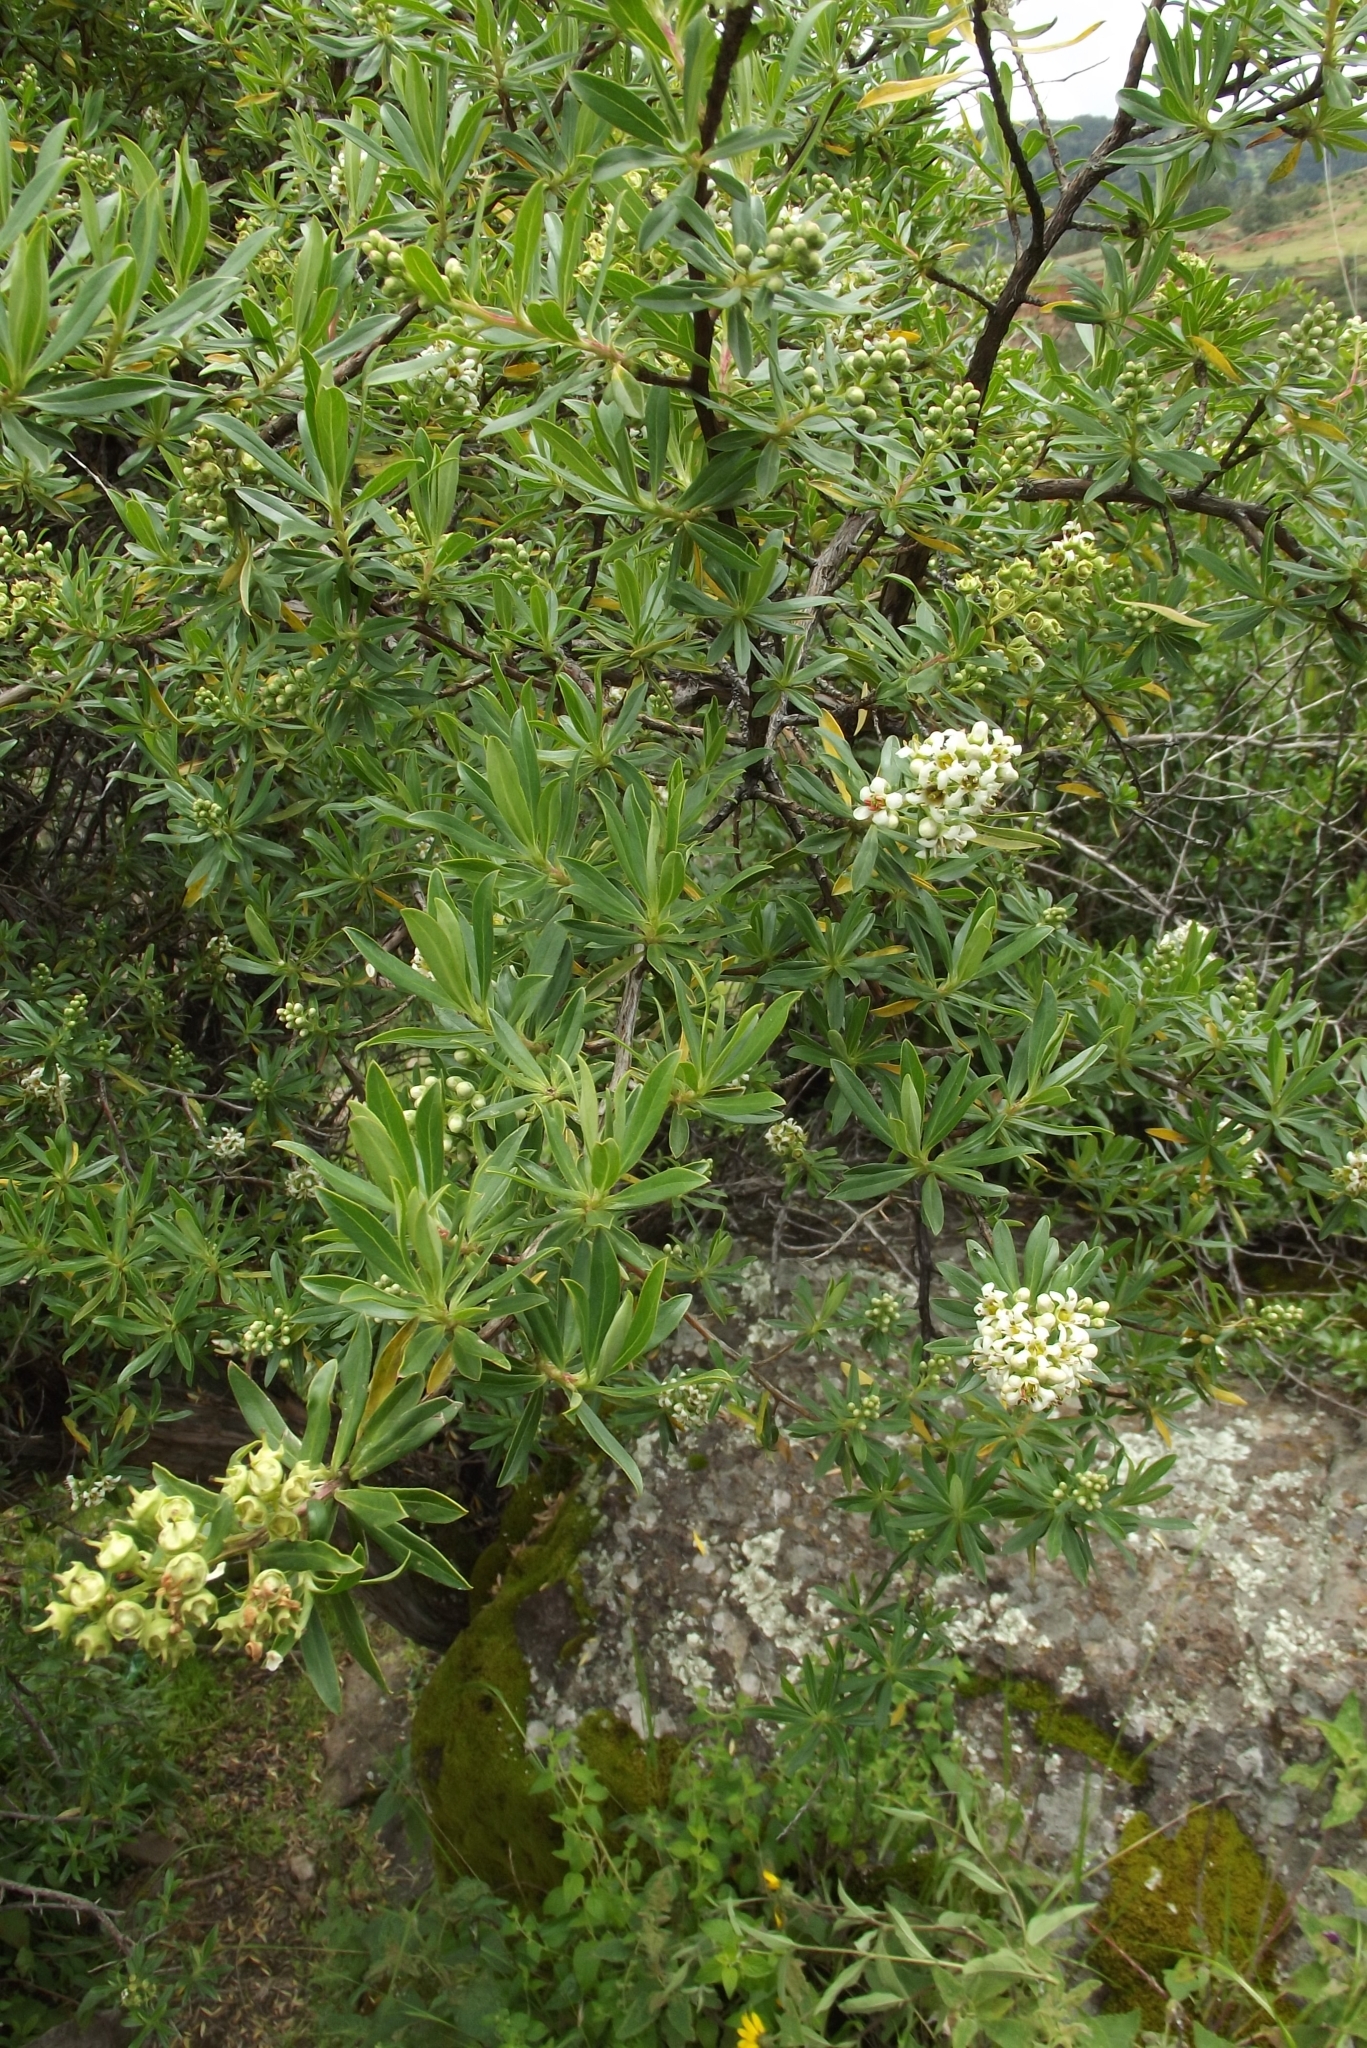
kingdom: Plantae
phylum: Tracheophyta
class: Magnoliopsida
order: Escalloniales
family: Escalloniaceae
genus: Escallonia
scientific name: Escallonia resinosa
